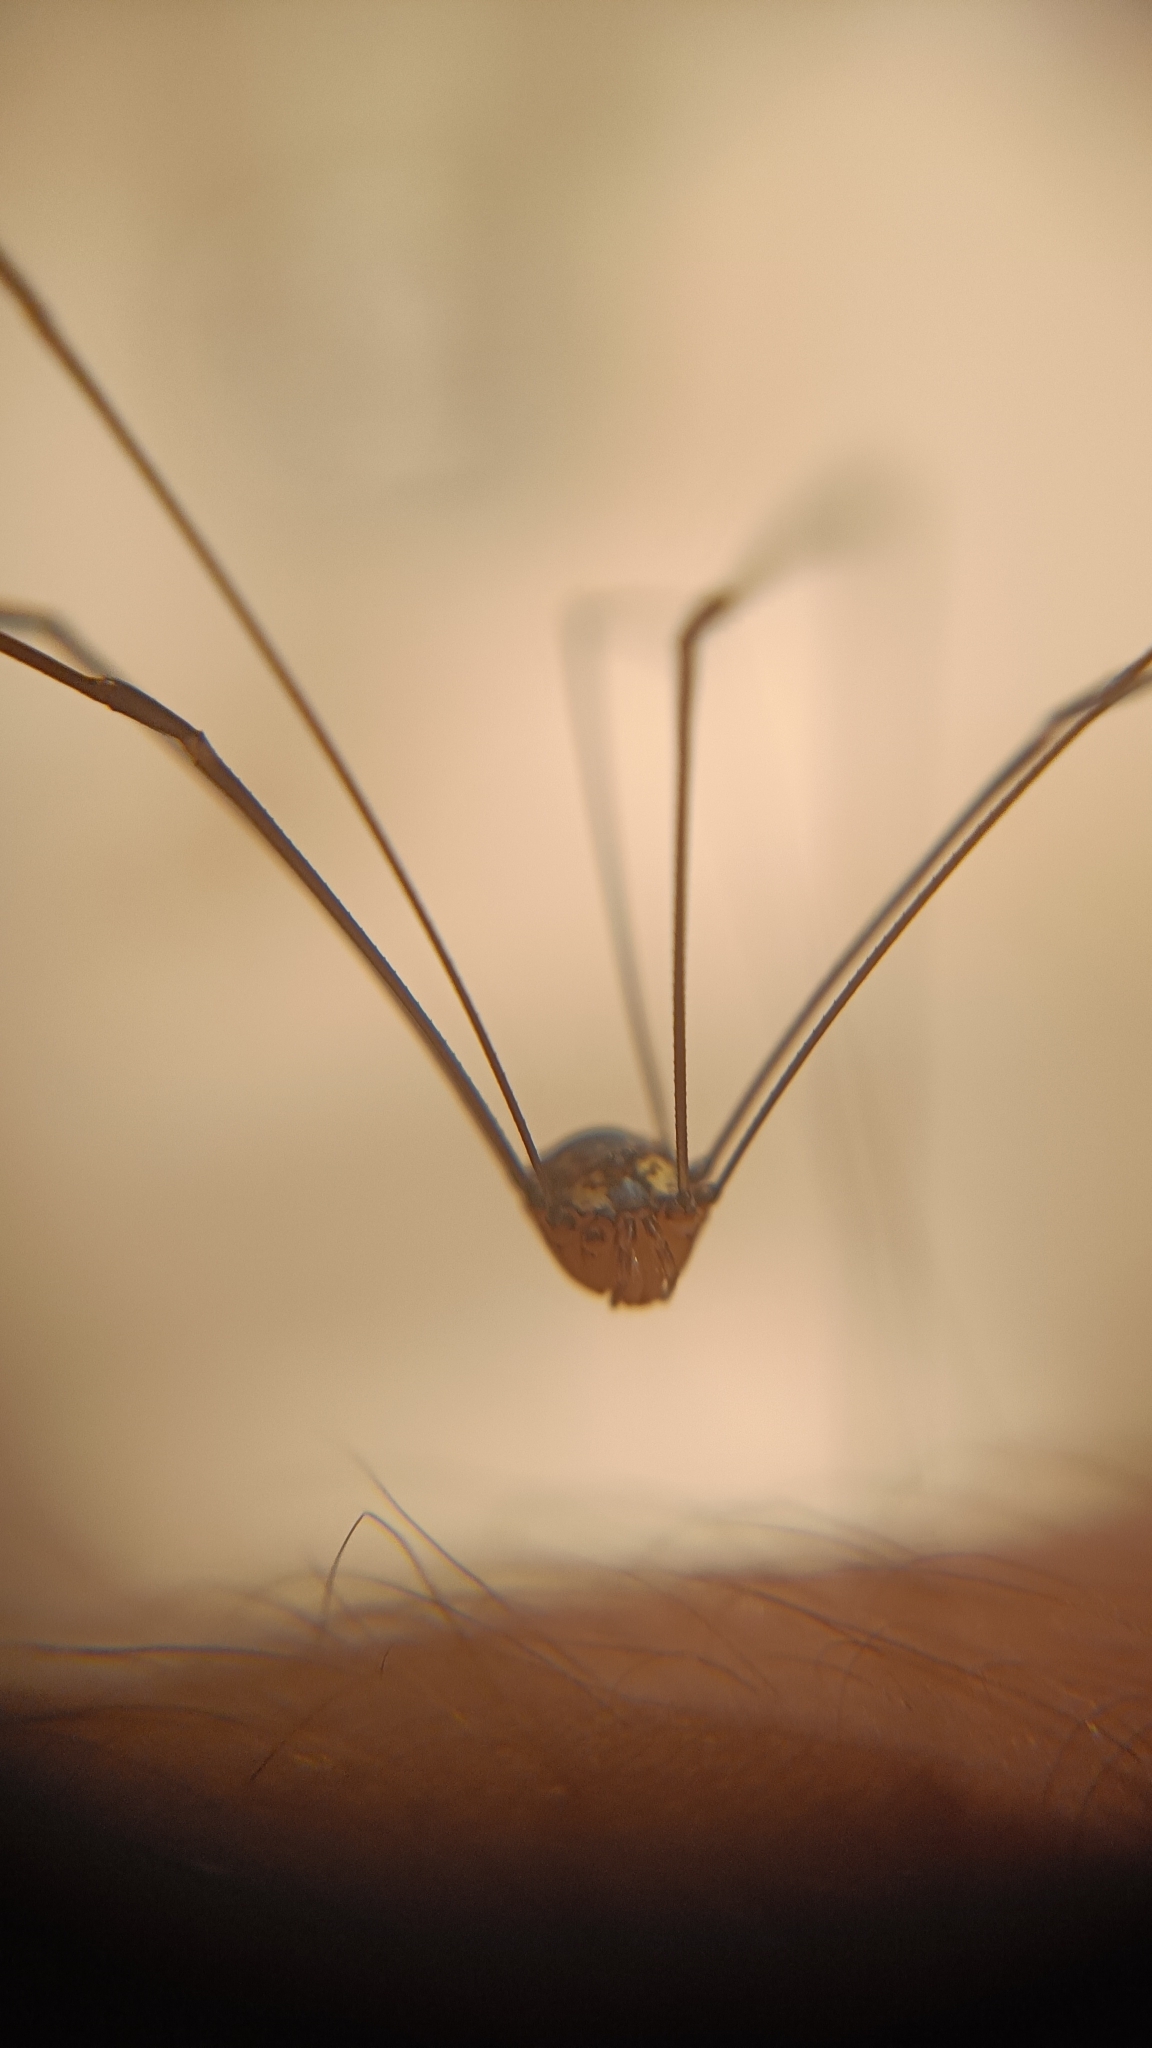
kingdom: Animalia
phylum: Arthropoda
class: Arachnida
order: Opiliones
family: Sclerosomatidae
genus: Leiobunum
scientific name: Leiobunum
